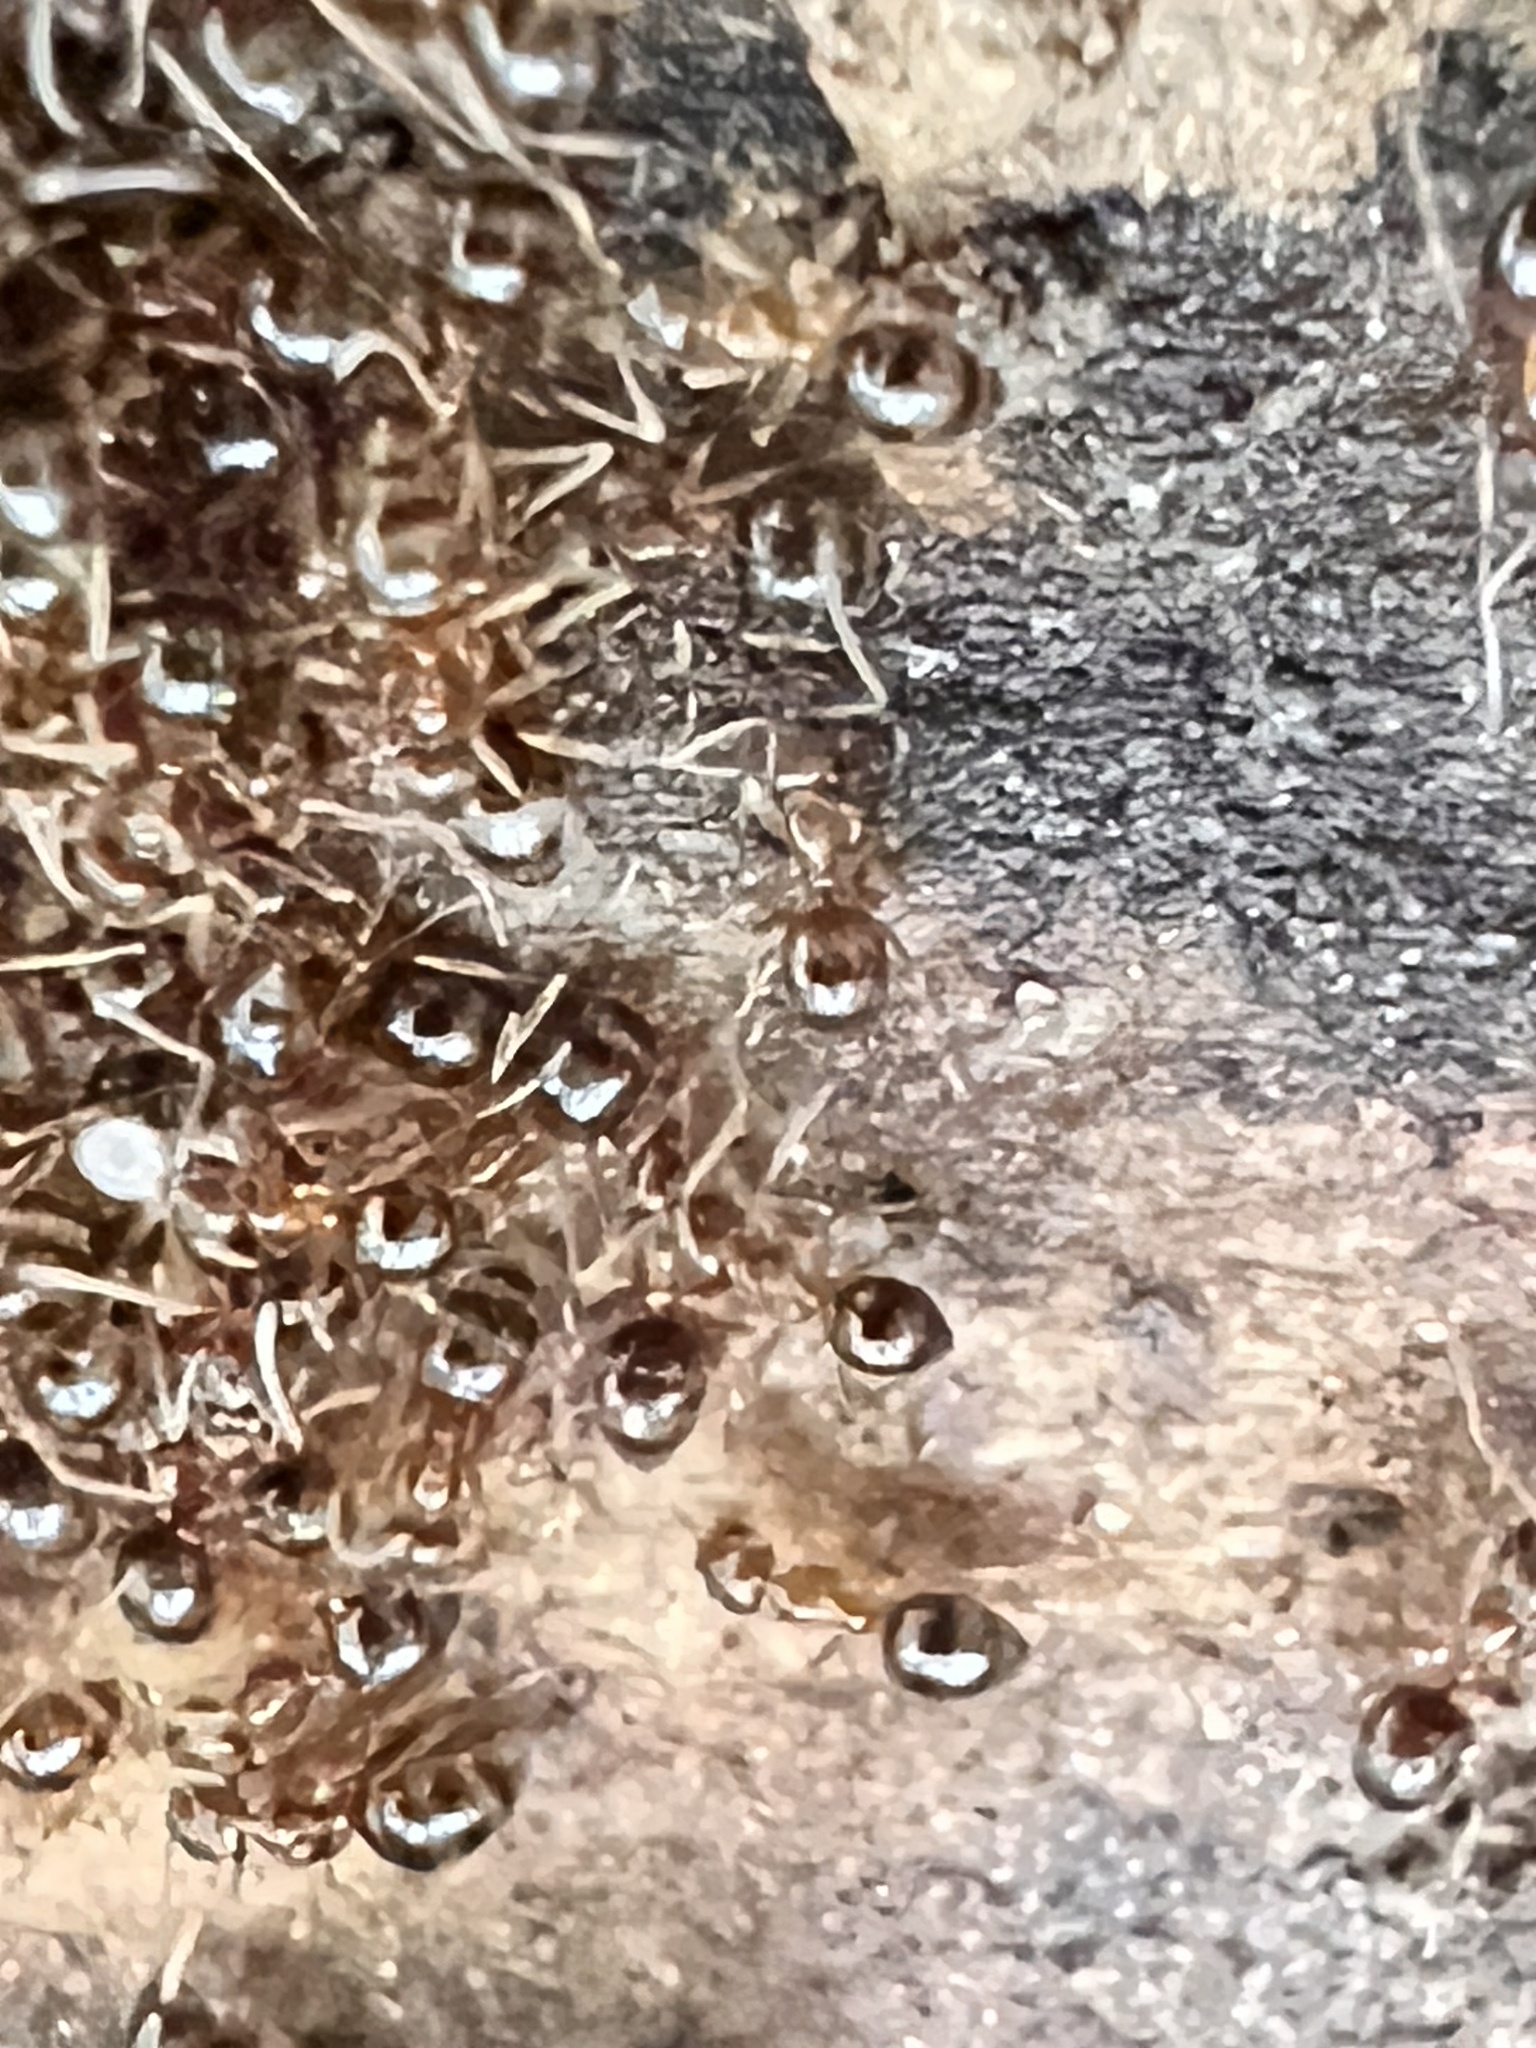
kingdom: Animalia
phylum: Arthropoda
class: Insecta
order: Hymenoptera
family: Formicidae
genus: Paratrechina
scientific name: Paratrechina flavipes
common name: Eastern asian formicine ant
